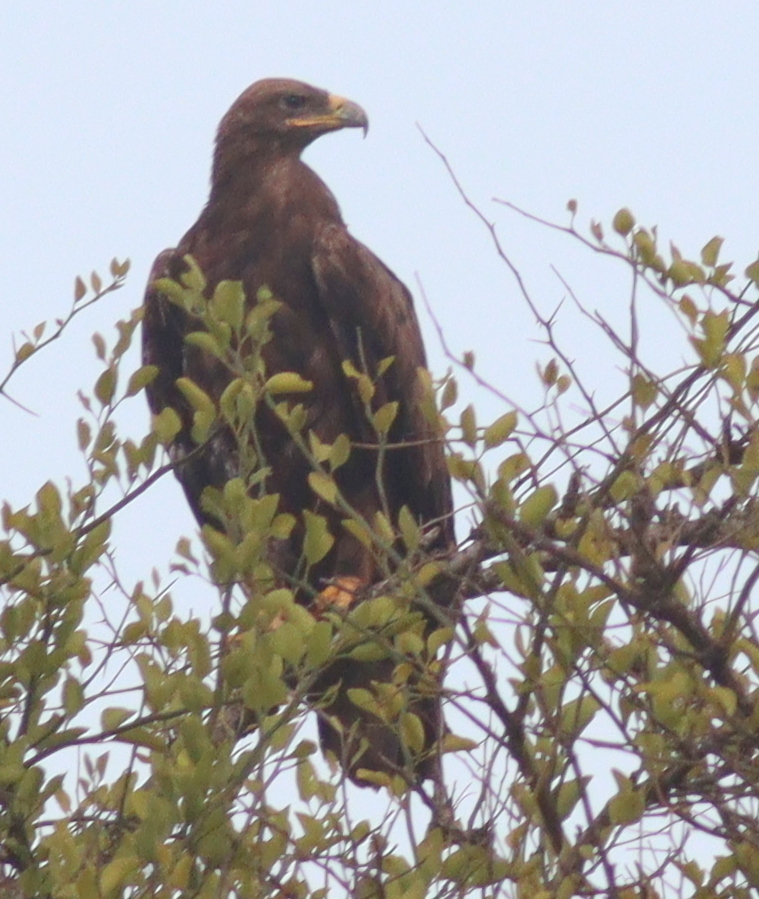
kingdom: Animalia
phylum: Chordata
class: Aves
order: Accipitriformes
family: Accipitridae
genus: Aquila
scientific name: Aquila nipalensis
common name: Steppe eagle
